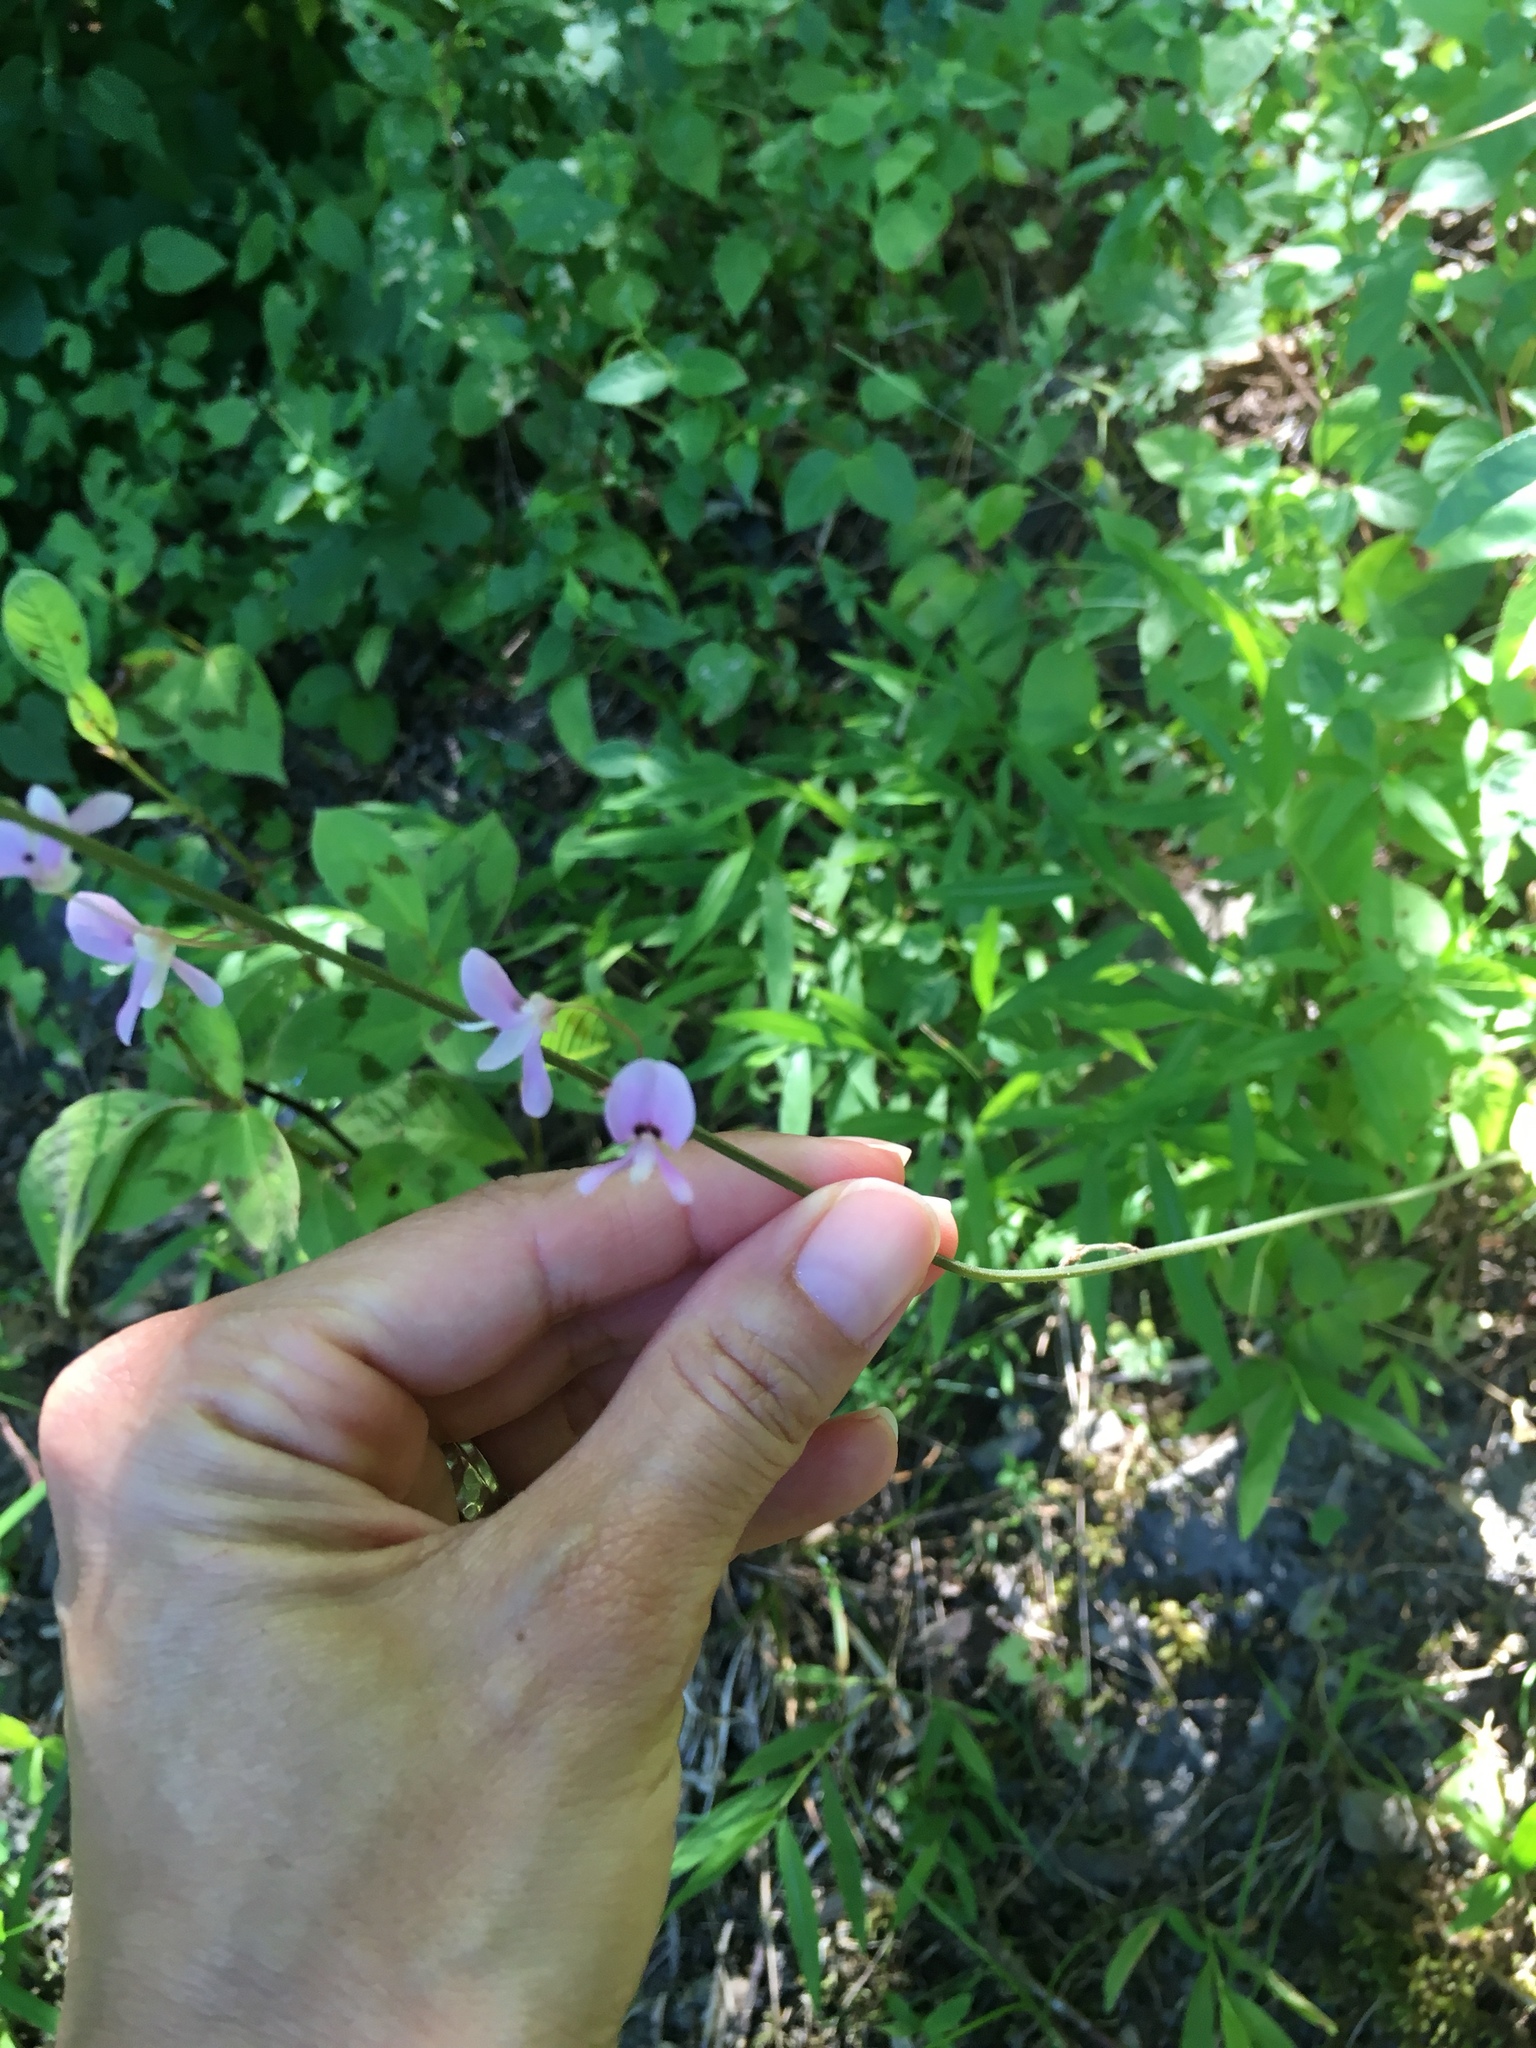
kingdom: Plantae
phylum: Tracheophyta
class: Magnoliopsida
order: Fabales
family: Fabaceae
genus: Hylodesmum
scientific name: Hylodesmum nudiflorum
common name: Bare-stemmed tick-trefoil
